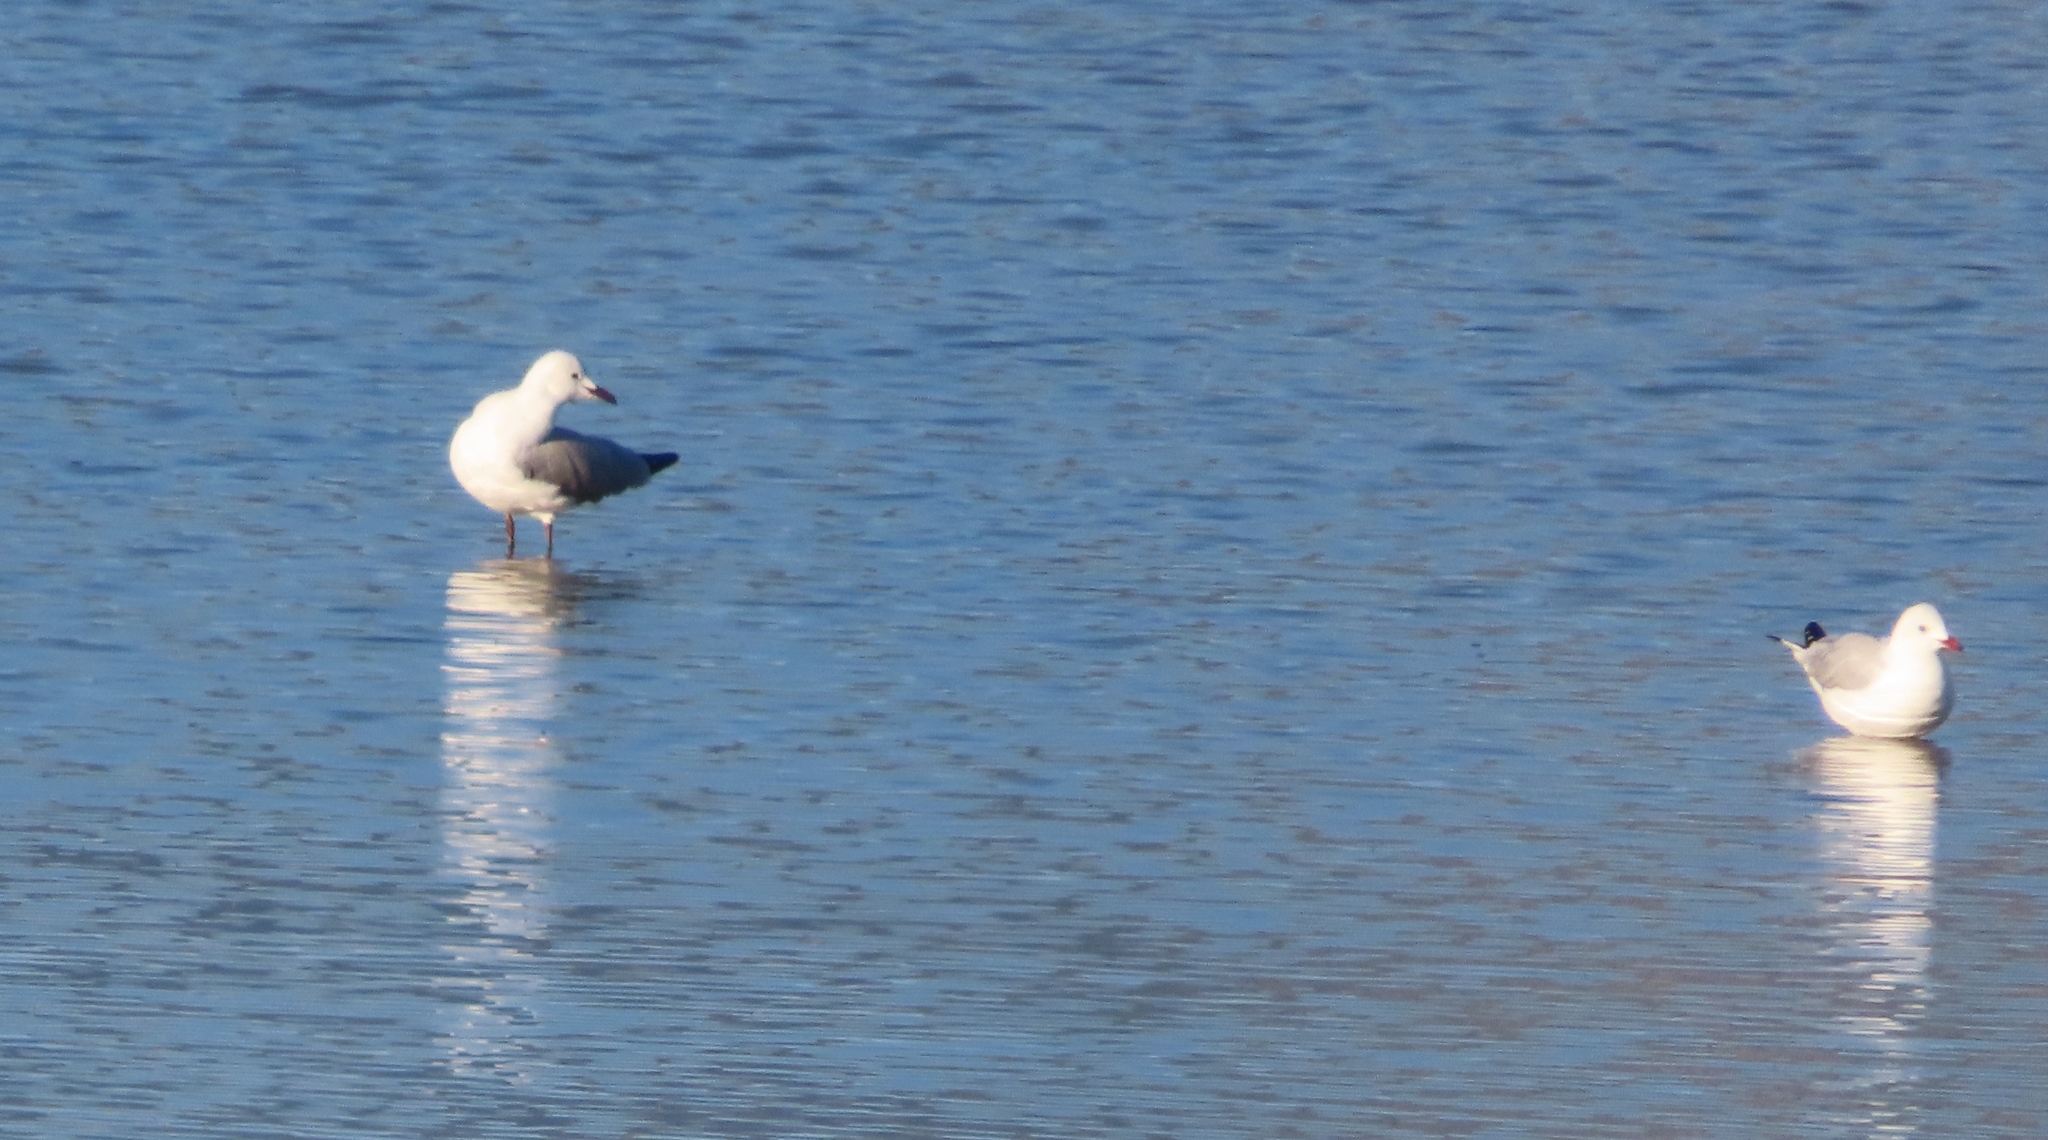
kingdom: Animalia
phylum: Chordata
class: Aves
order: Charadriiformes
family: Laridae
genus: Chroicocephalus
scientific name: Chroicocephalus hartlaubii
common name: Hartlaub's gull
